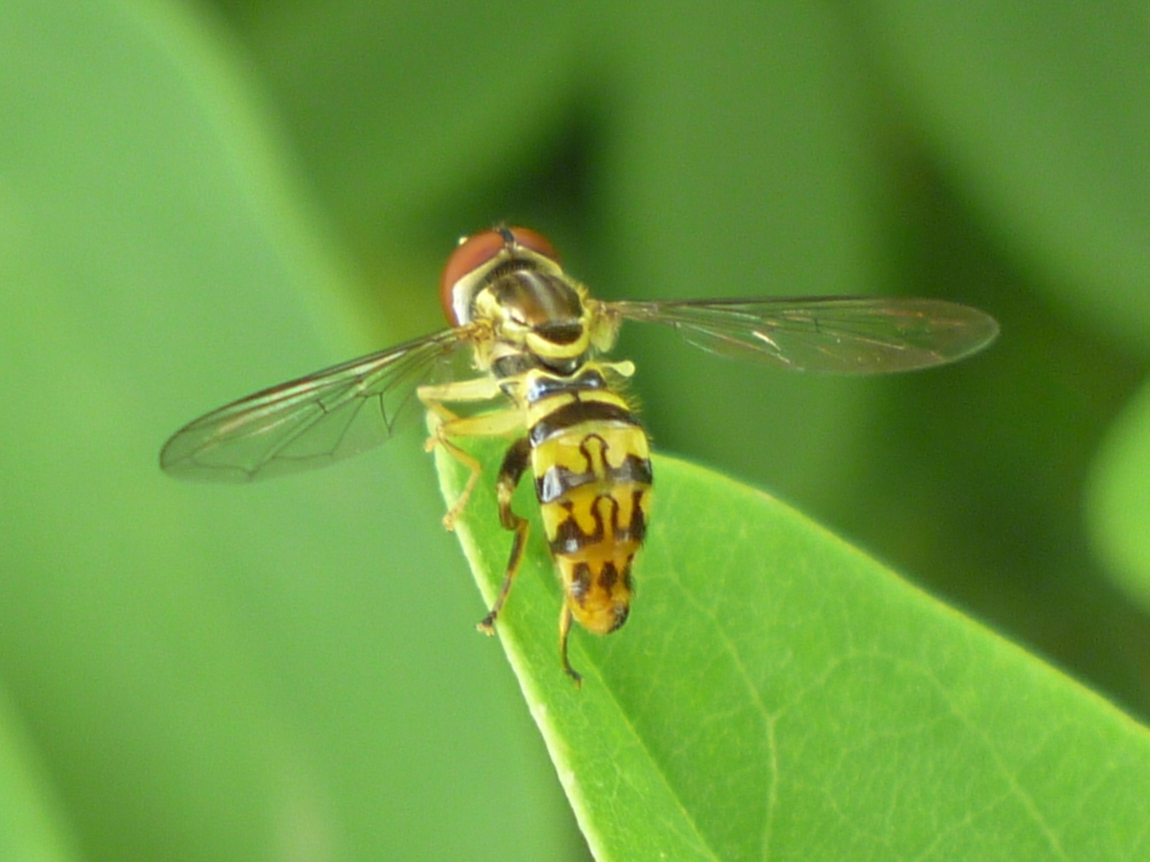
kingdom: Animalia
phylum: Arthropoda
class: Insecta
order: Diptera
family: Syrphidae
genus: Toxomerus
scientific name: Toxomerus geminatus
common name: Eastern calligrapher
